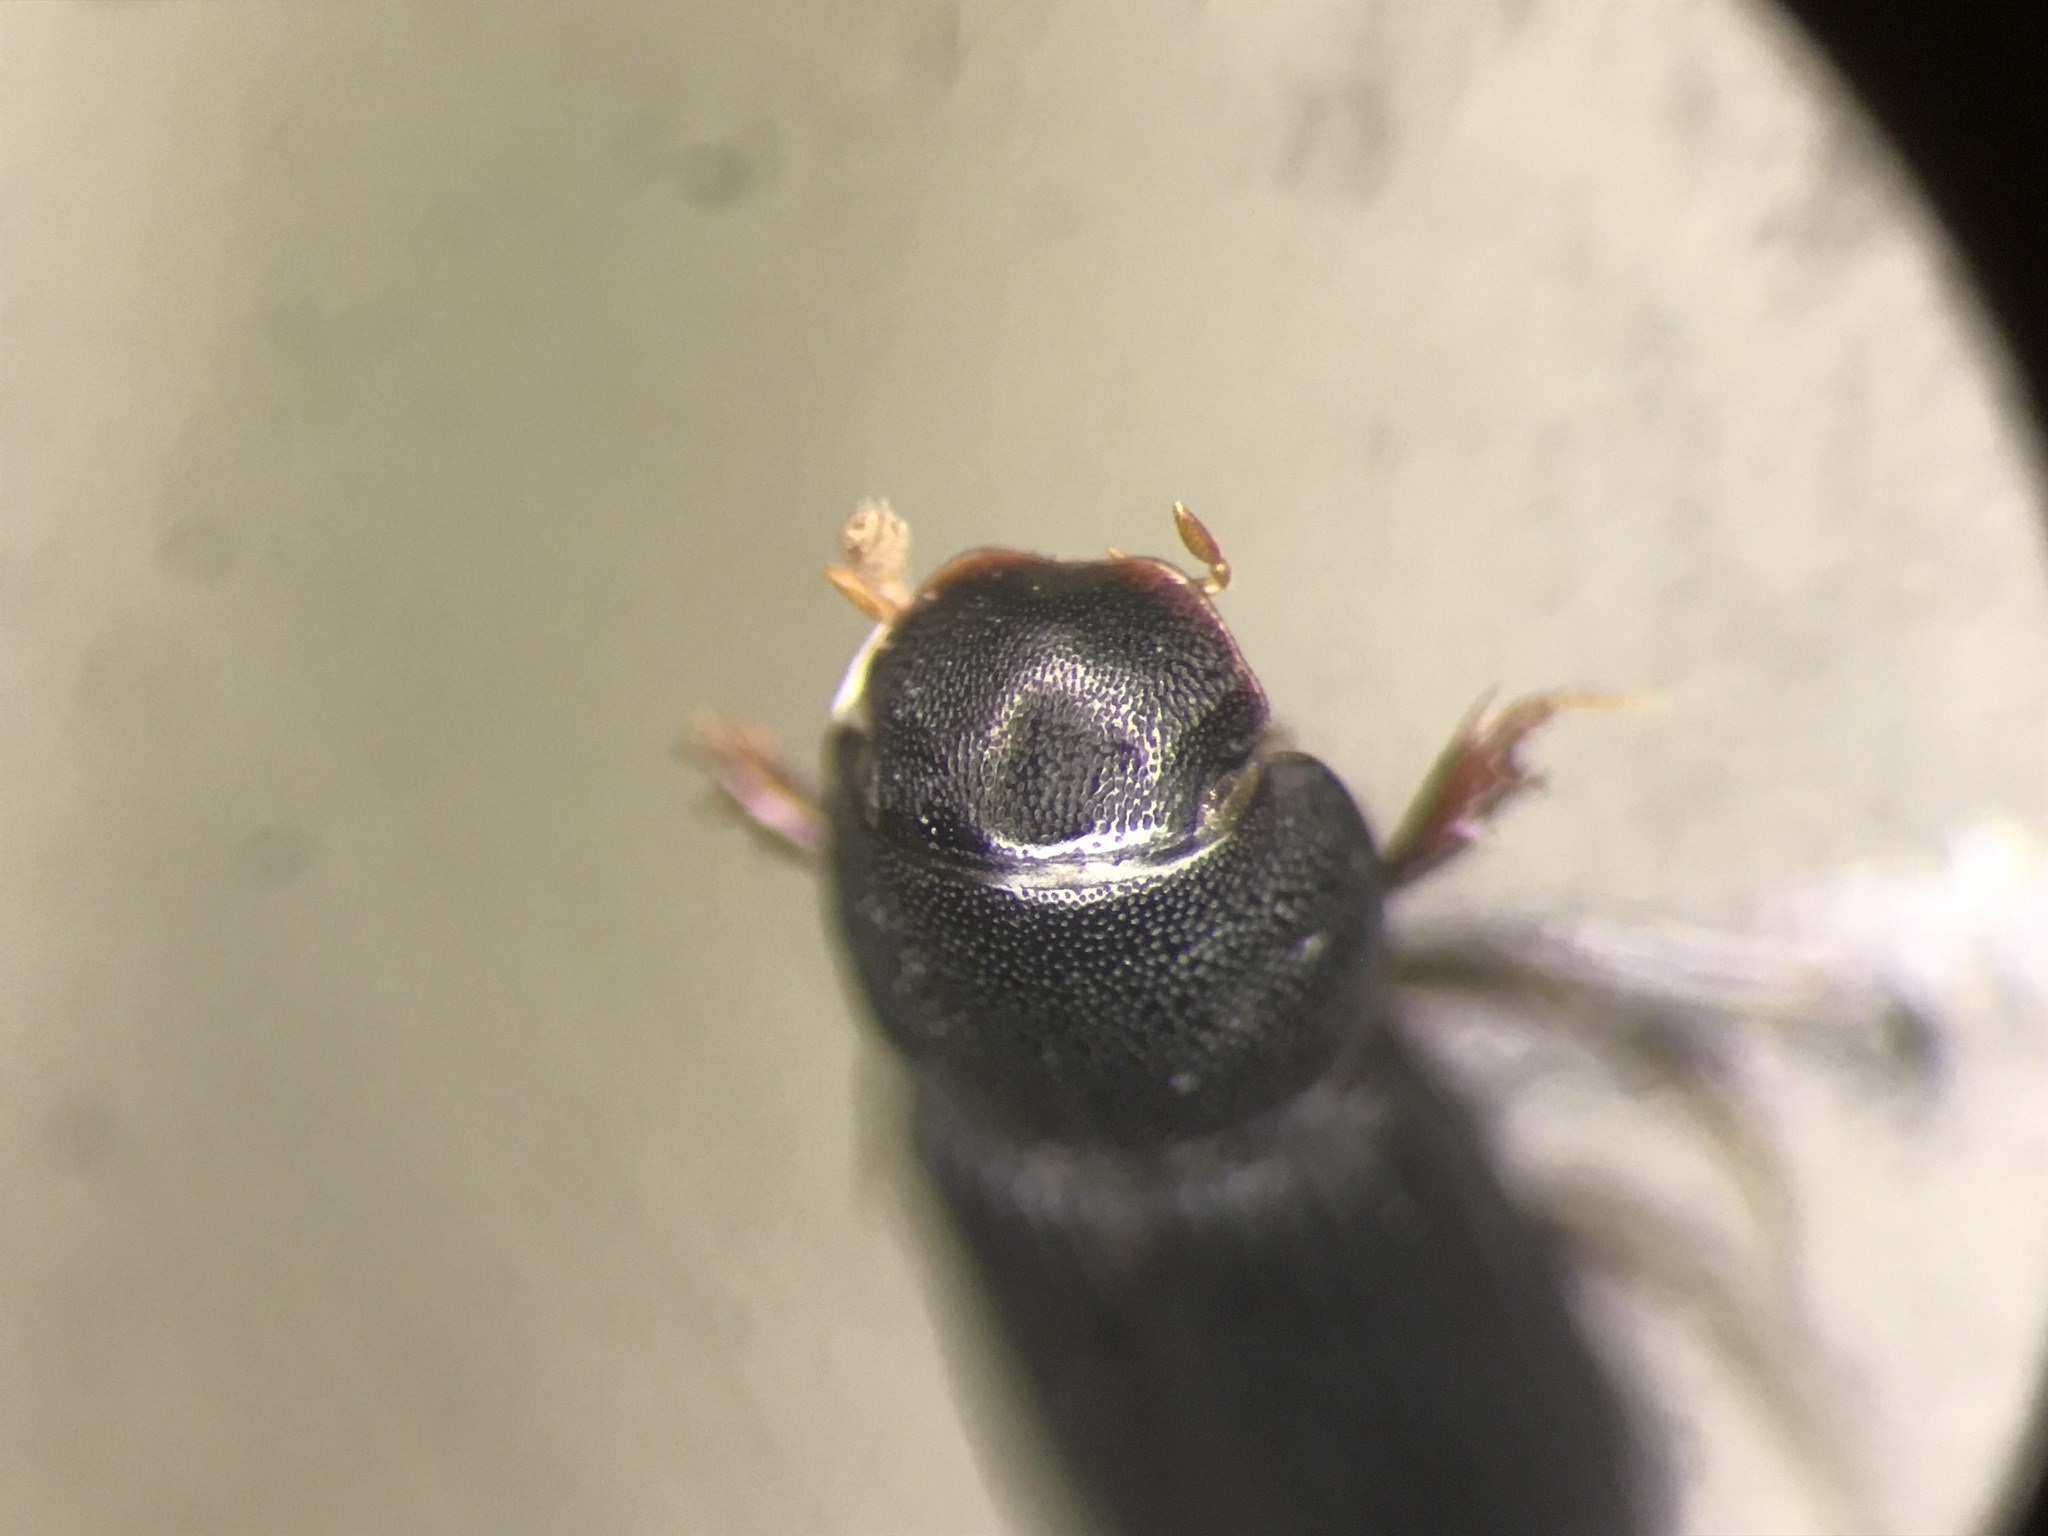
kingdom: Animalia
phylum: Arthropoda
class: Insecta
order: Coleoptera
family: Scarabaeidae
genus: Ataenius
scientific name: Ataenius gracilis
